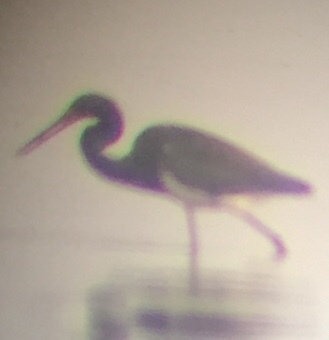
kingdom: Animalia
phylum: Chordata
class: Aves
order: Pelecaniformes
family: Ardeidae
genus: Egretta
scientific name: Egretta tricolor
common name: Tricolored heron
